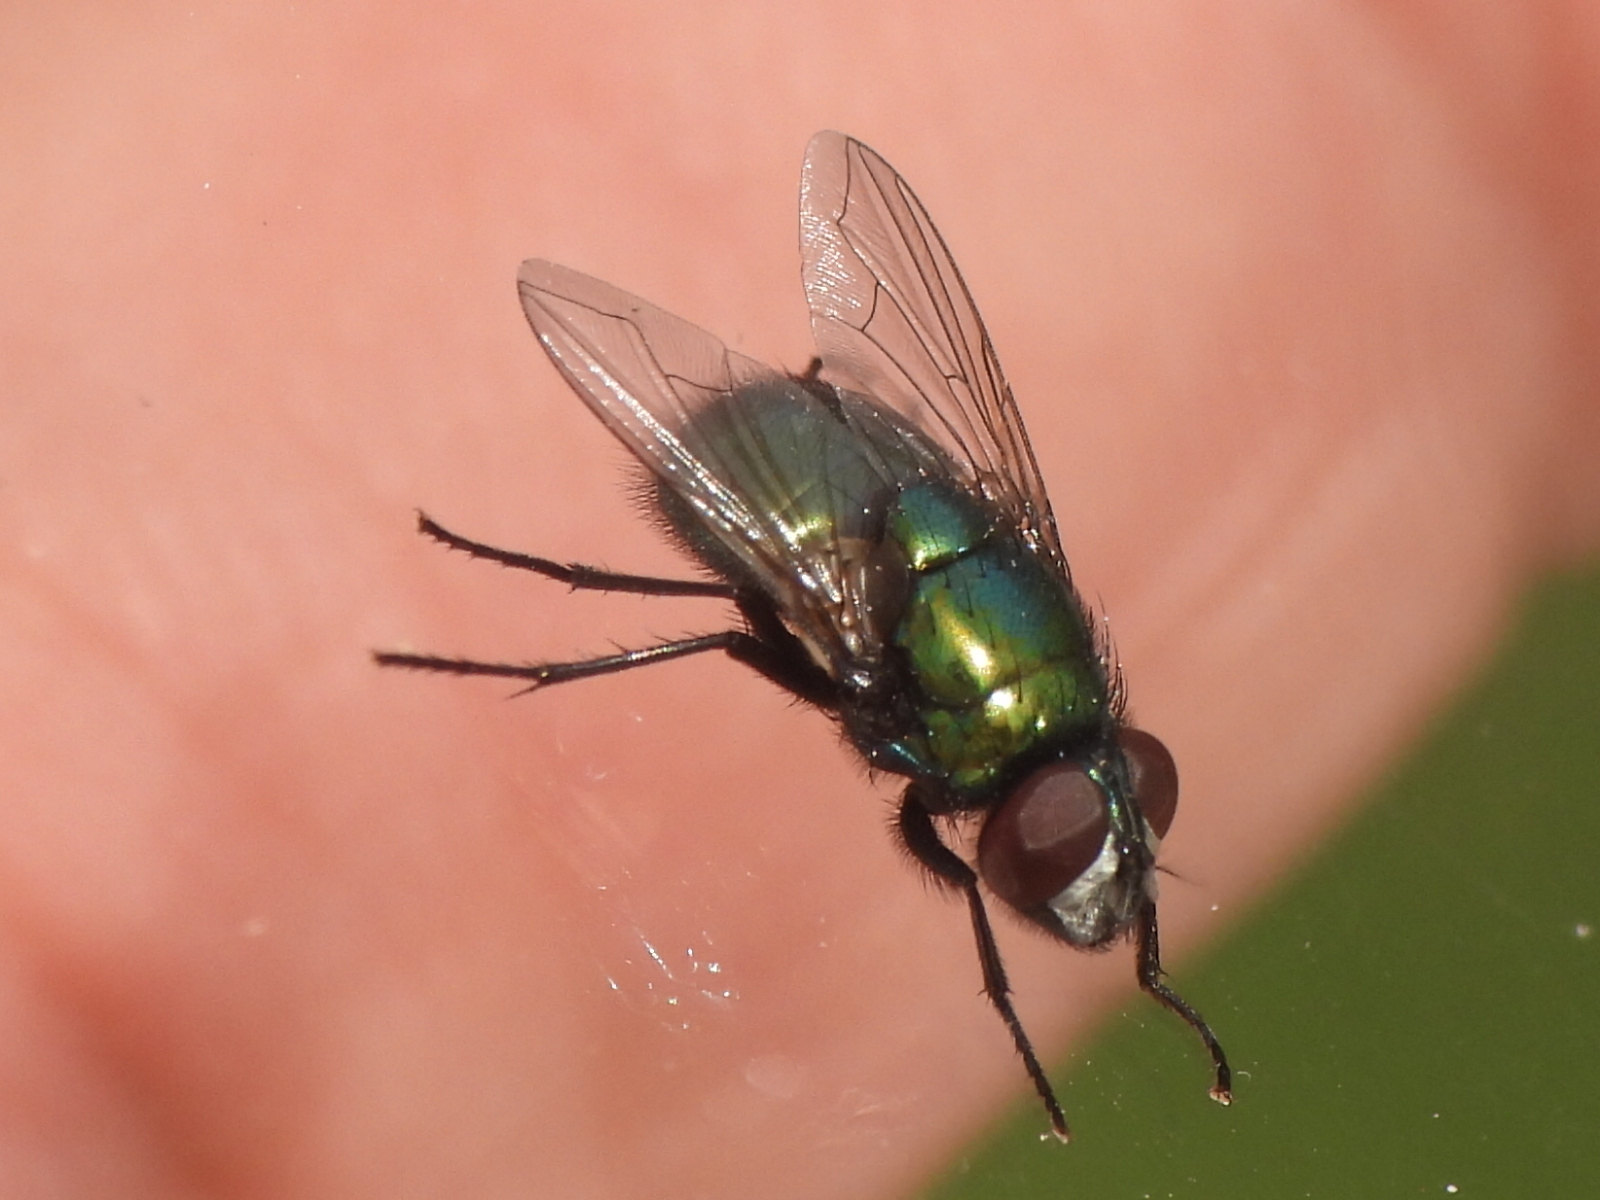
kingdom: Animalia
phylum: Arthropoda
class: Insecta
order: Diptera
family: Muscidae
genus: Neomyia
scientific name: Neomyia cornicina
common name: House fly
